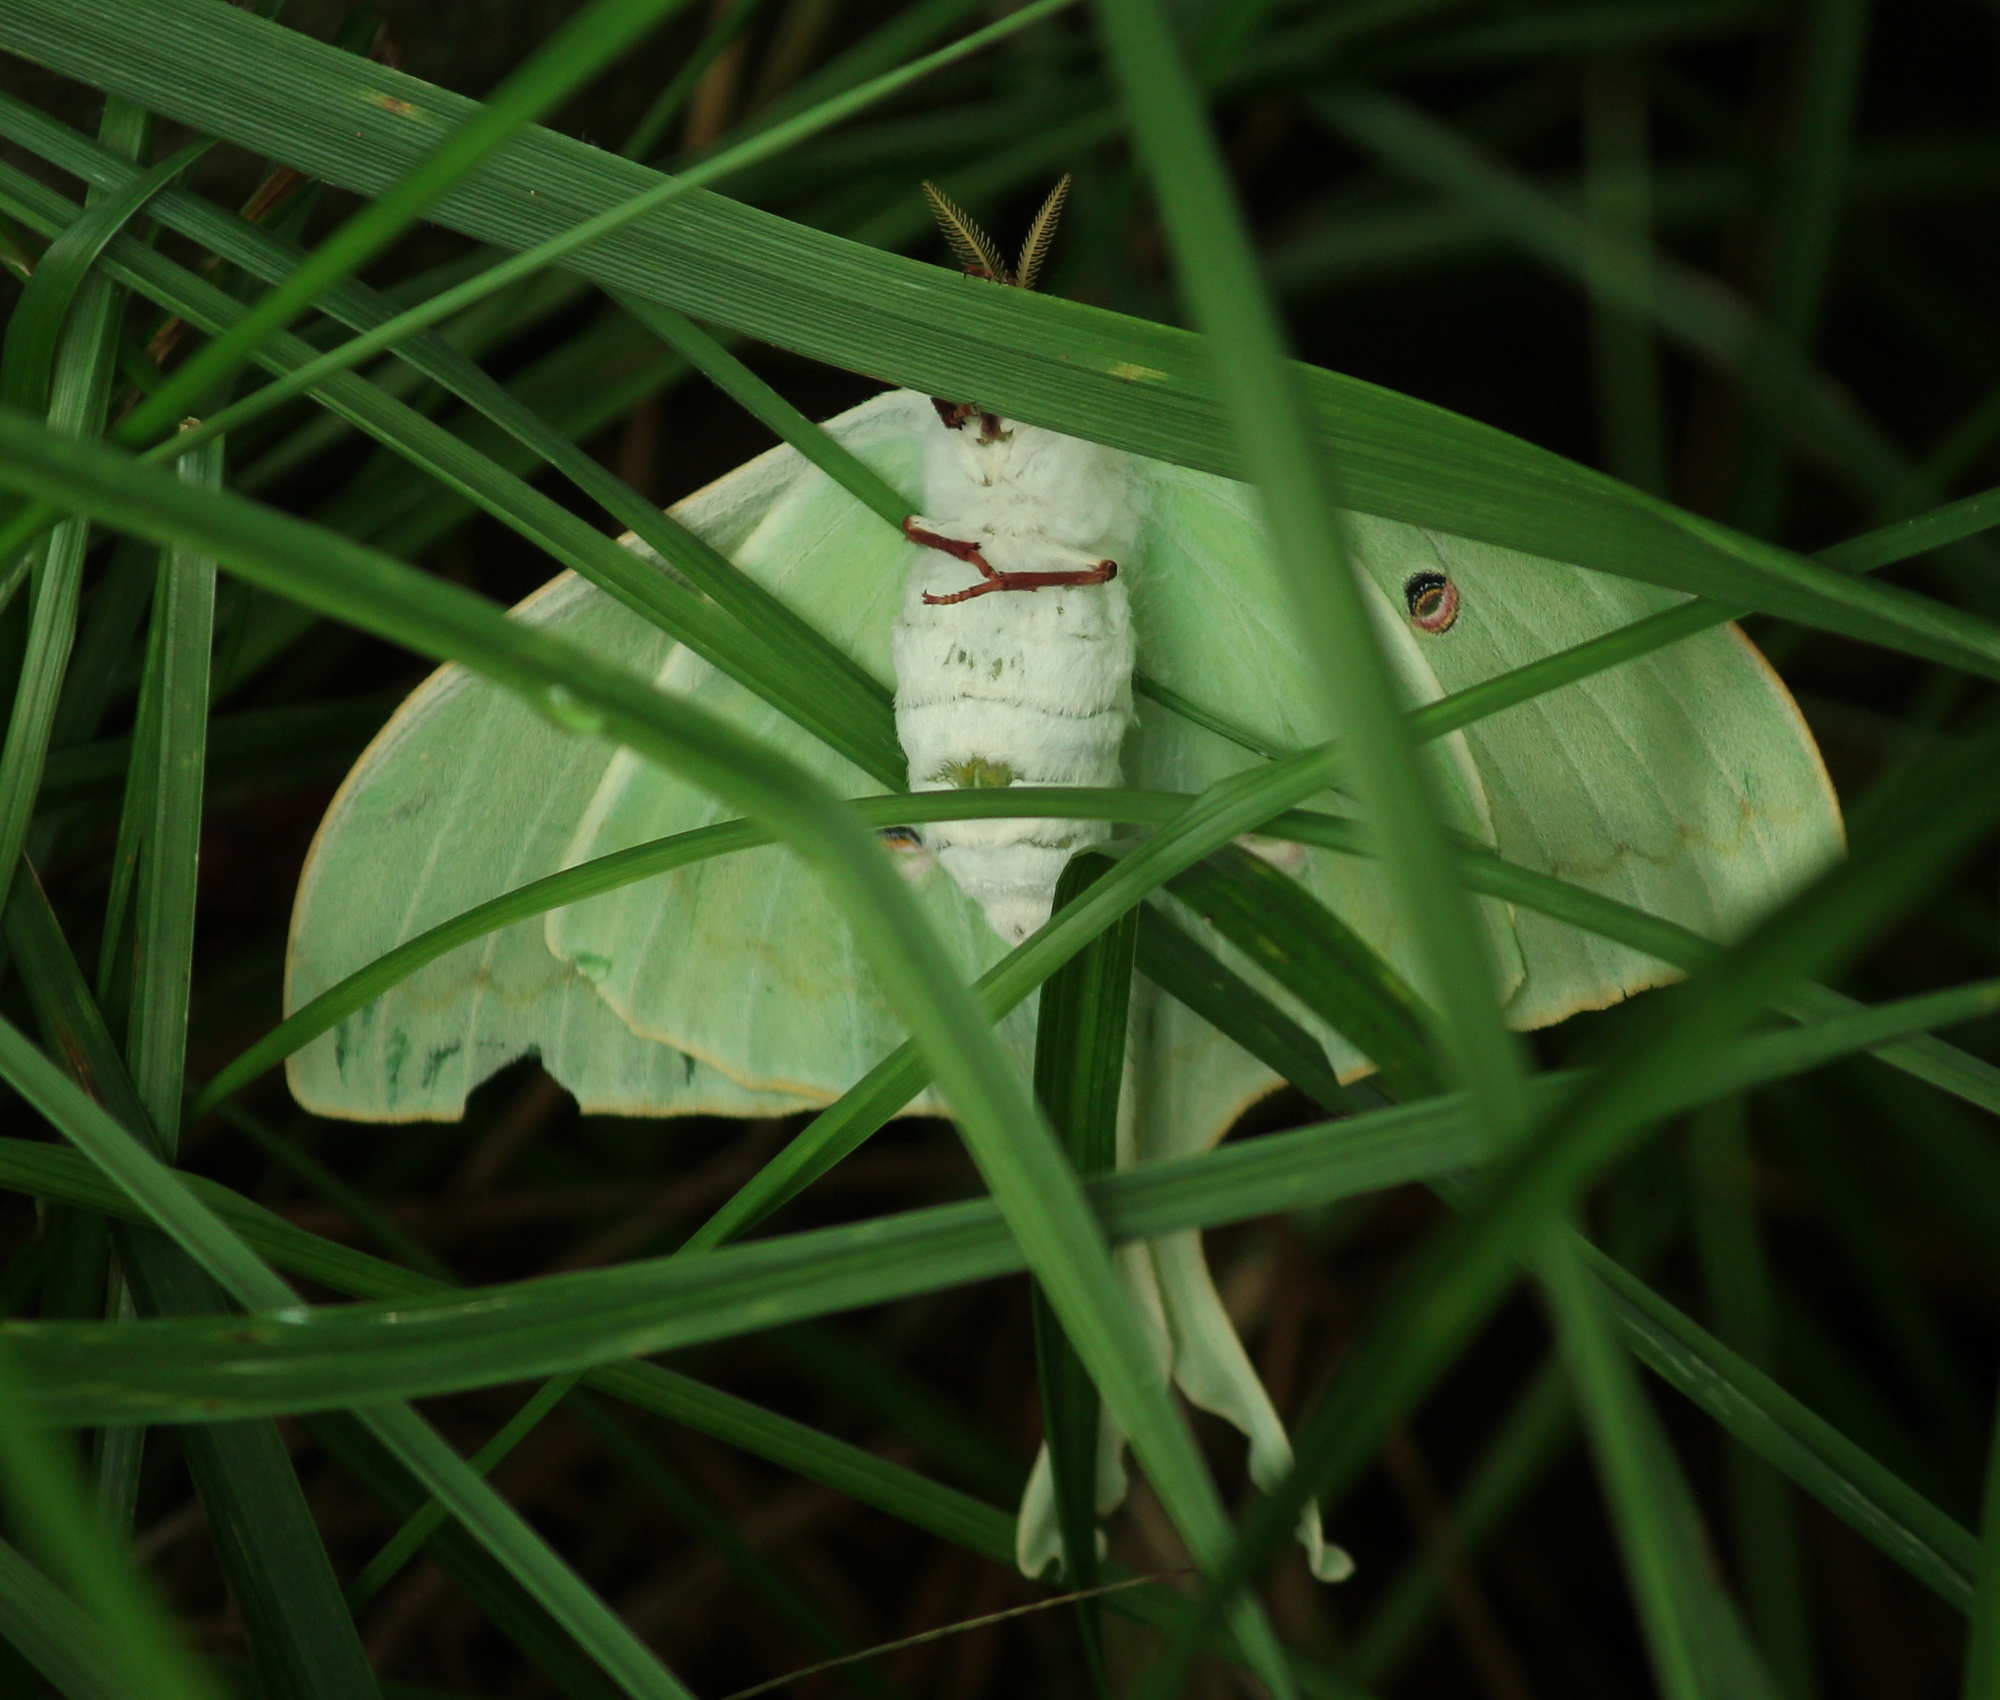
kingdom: Animalia
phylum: Arthropoda
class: Insecta
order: Lepidoptera
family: Saturniidae
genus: Actias
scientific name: Actias luna
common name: Luna moth
